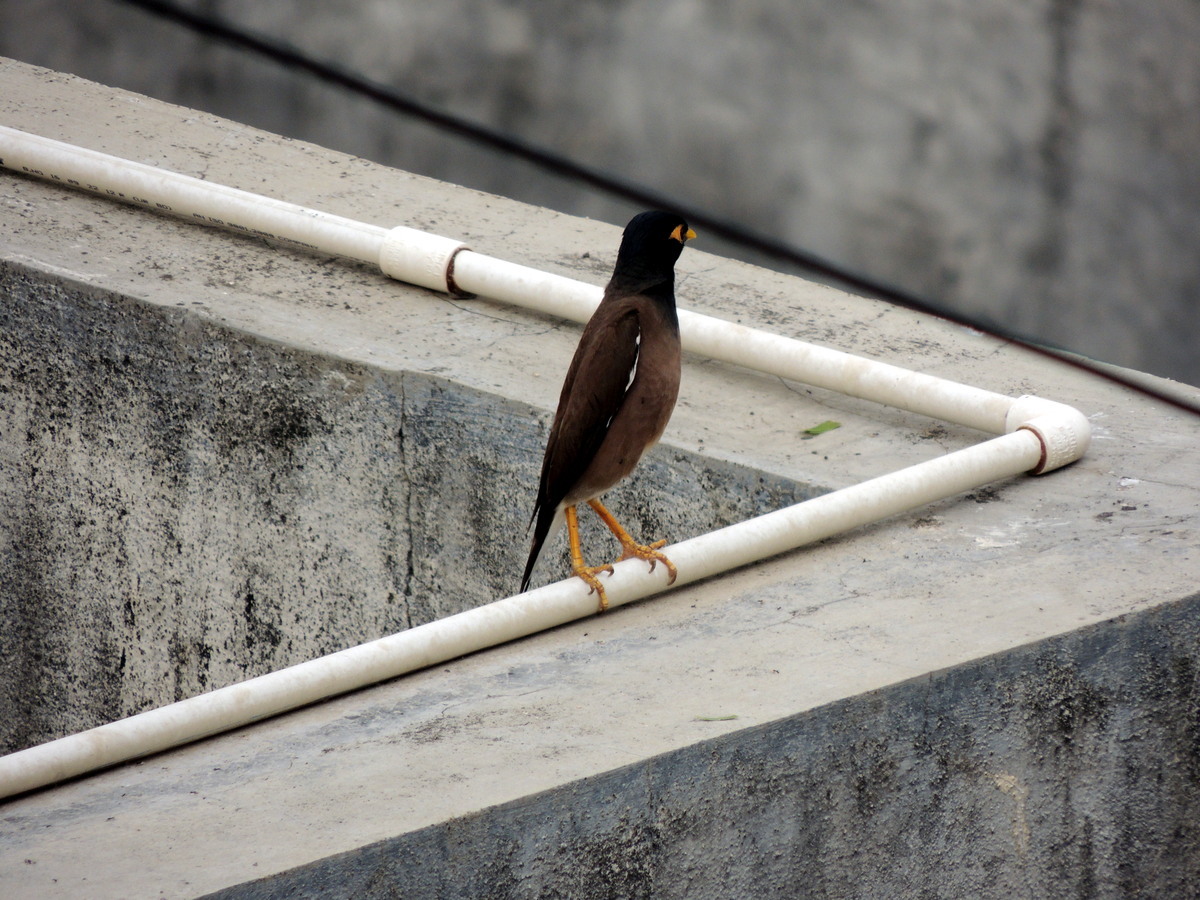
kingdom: Animalia
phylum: Chordata
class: Aves
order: Passeriformes
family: Sturnidae
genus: Acridotheres
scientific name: Acridotheres tristis
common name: Common myna
